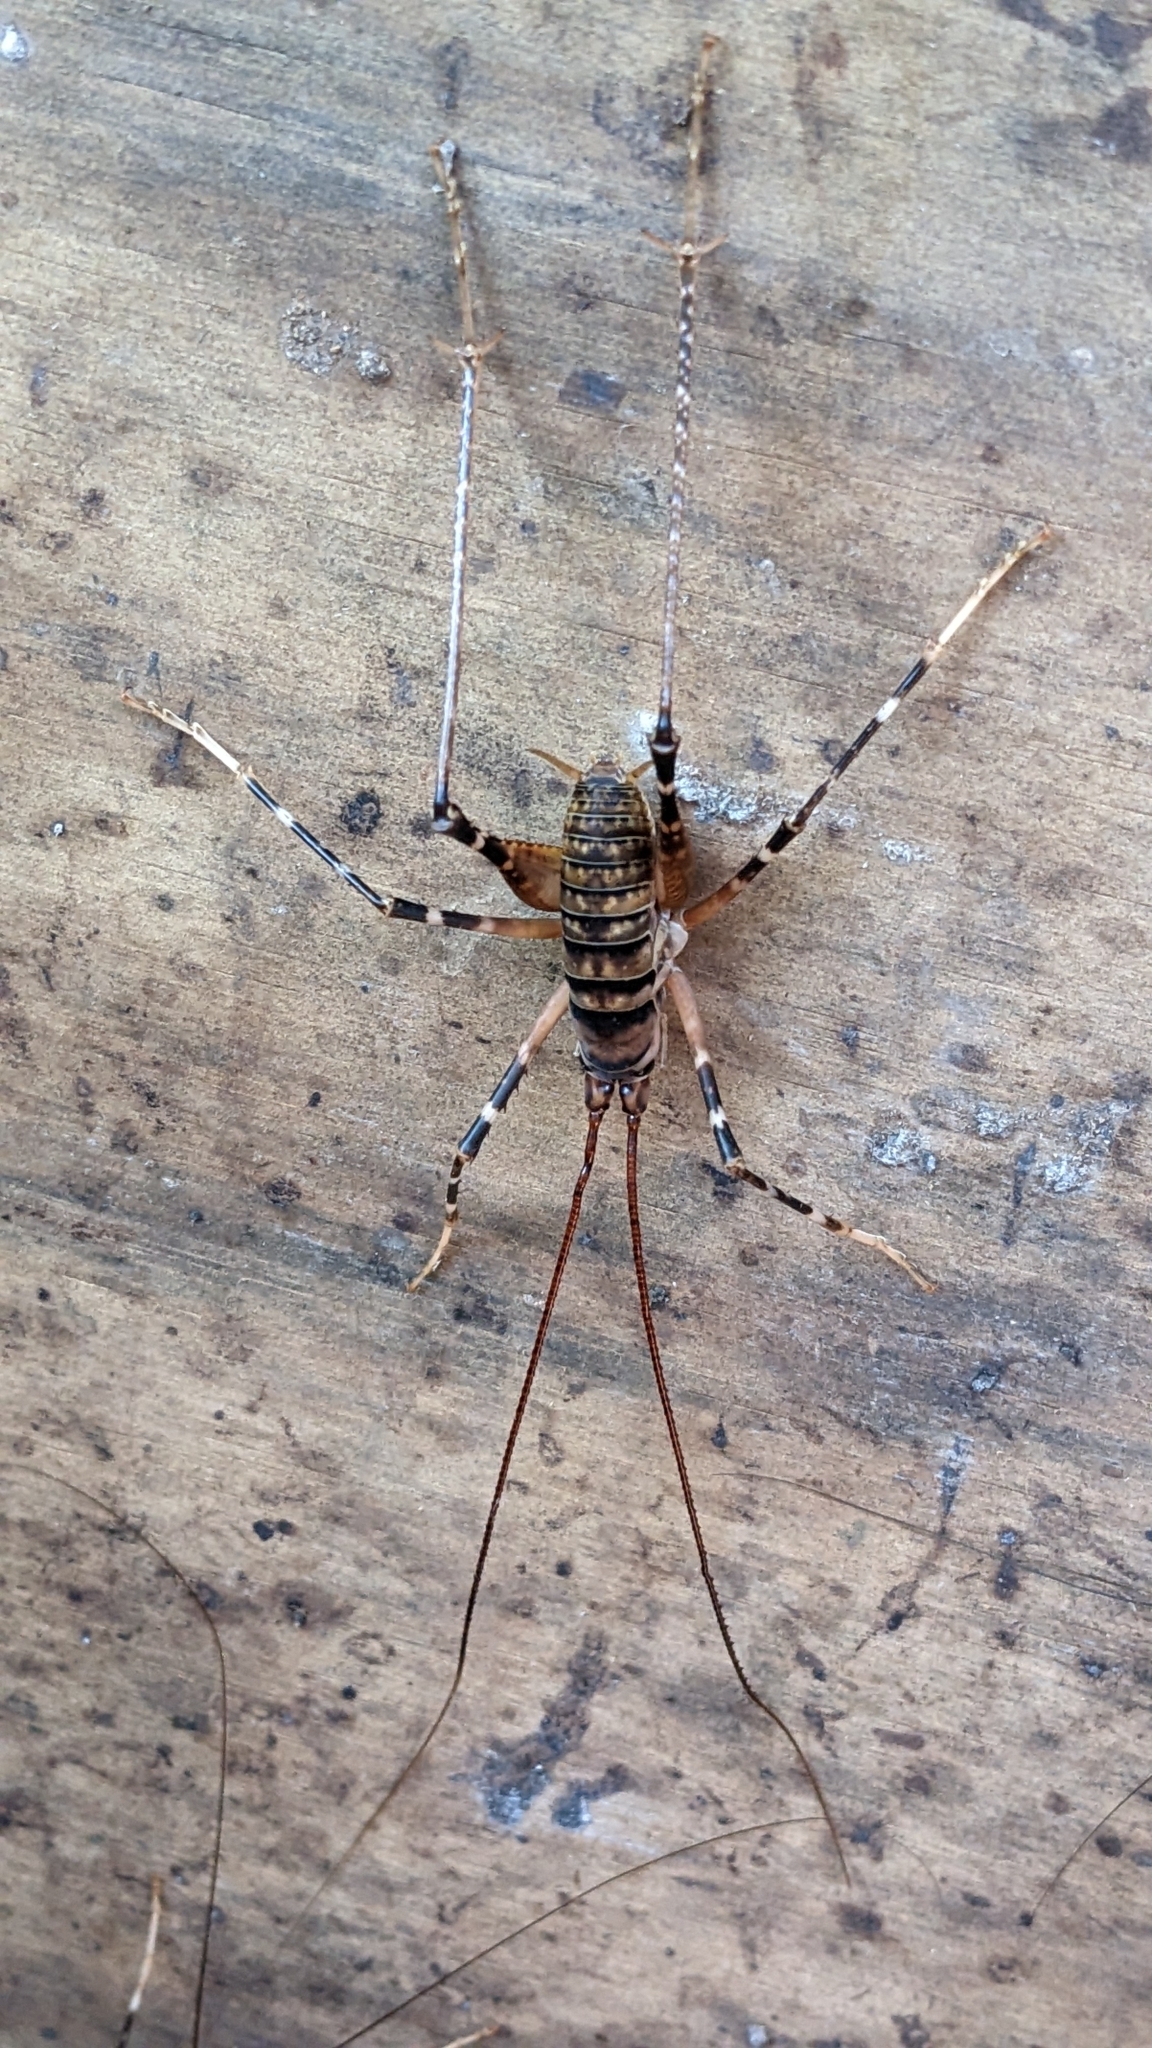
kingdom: Animalia
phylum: Arthropoda
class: Insecta
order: Orthoptera
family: Rhaphidophoridae
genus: Pachyrhamma
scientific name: Pachyrhamma edwardsii
